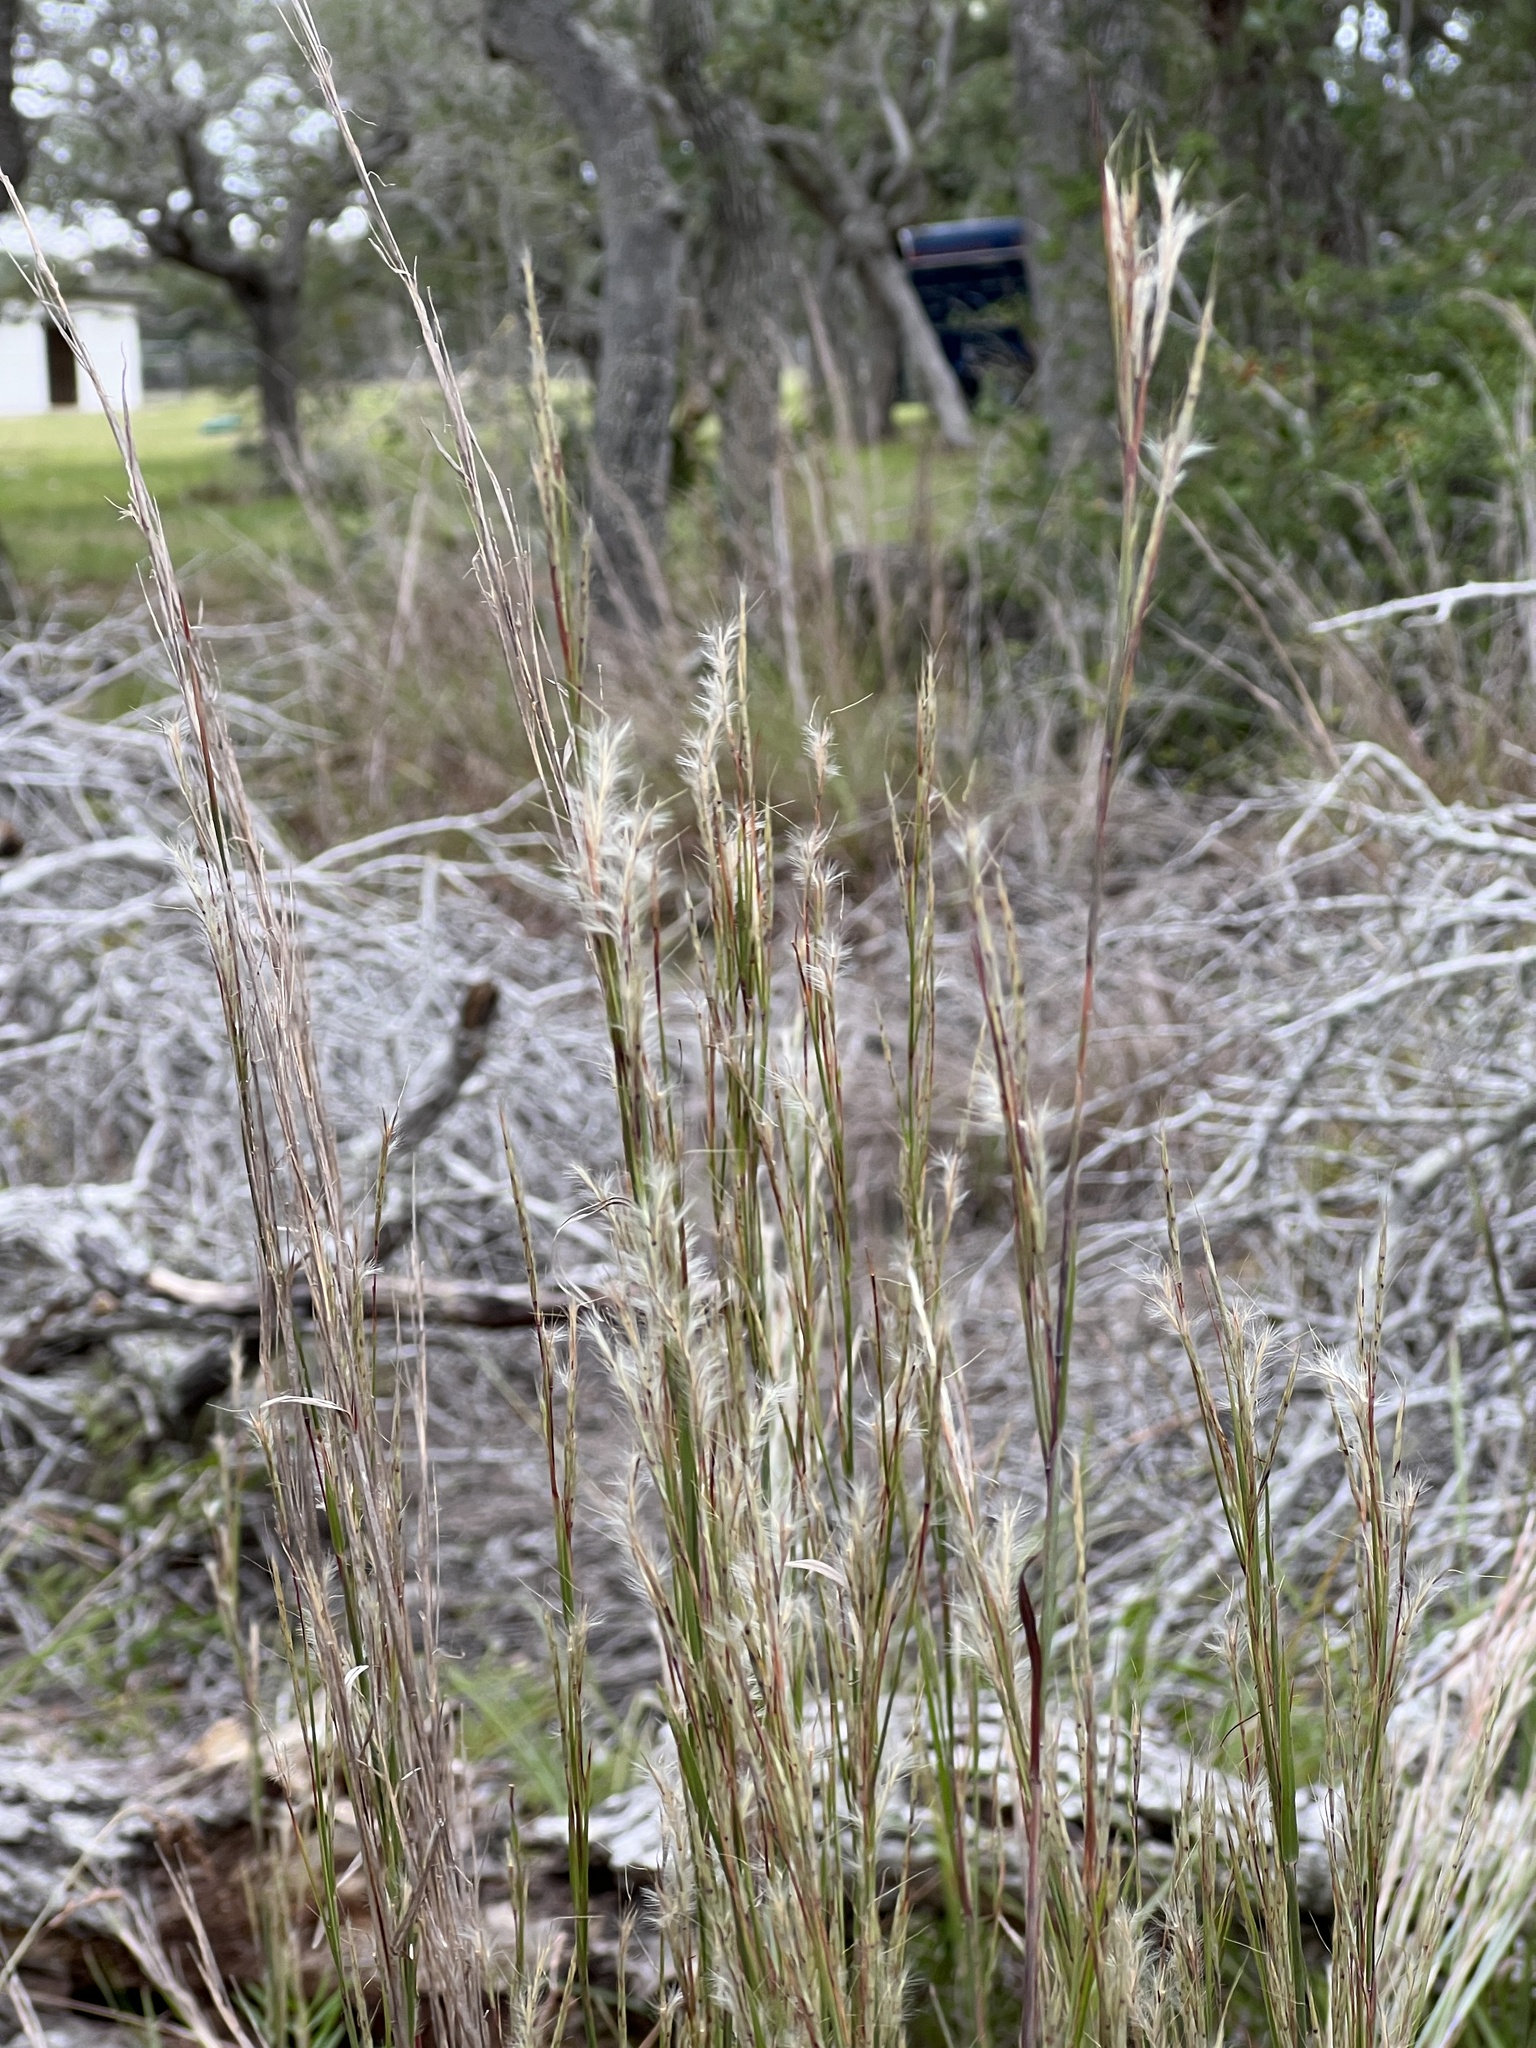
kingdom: Plantae
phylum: Tracheophyta
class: Liliopsida
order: Poales
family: Poaceae
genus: Schizachyrium
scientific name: Schizachyrium scoparium
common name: Little bluestem
